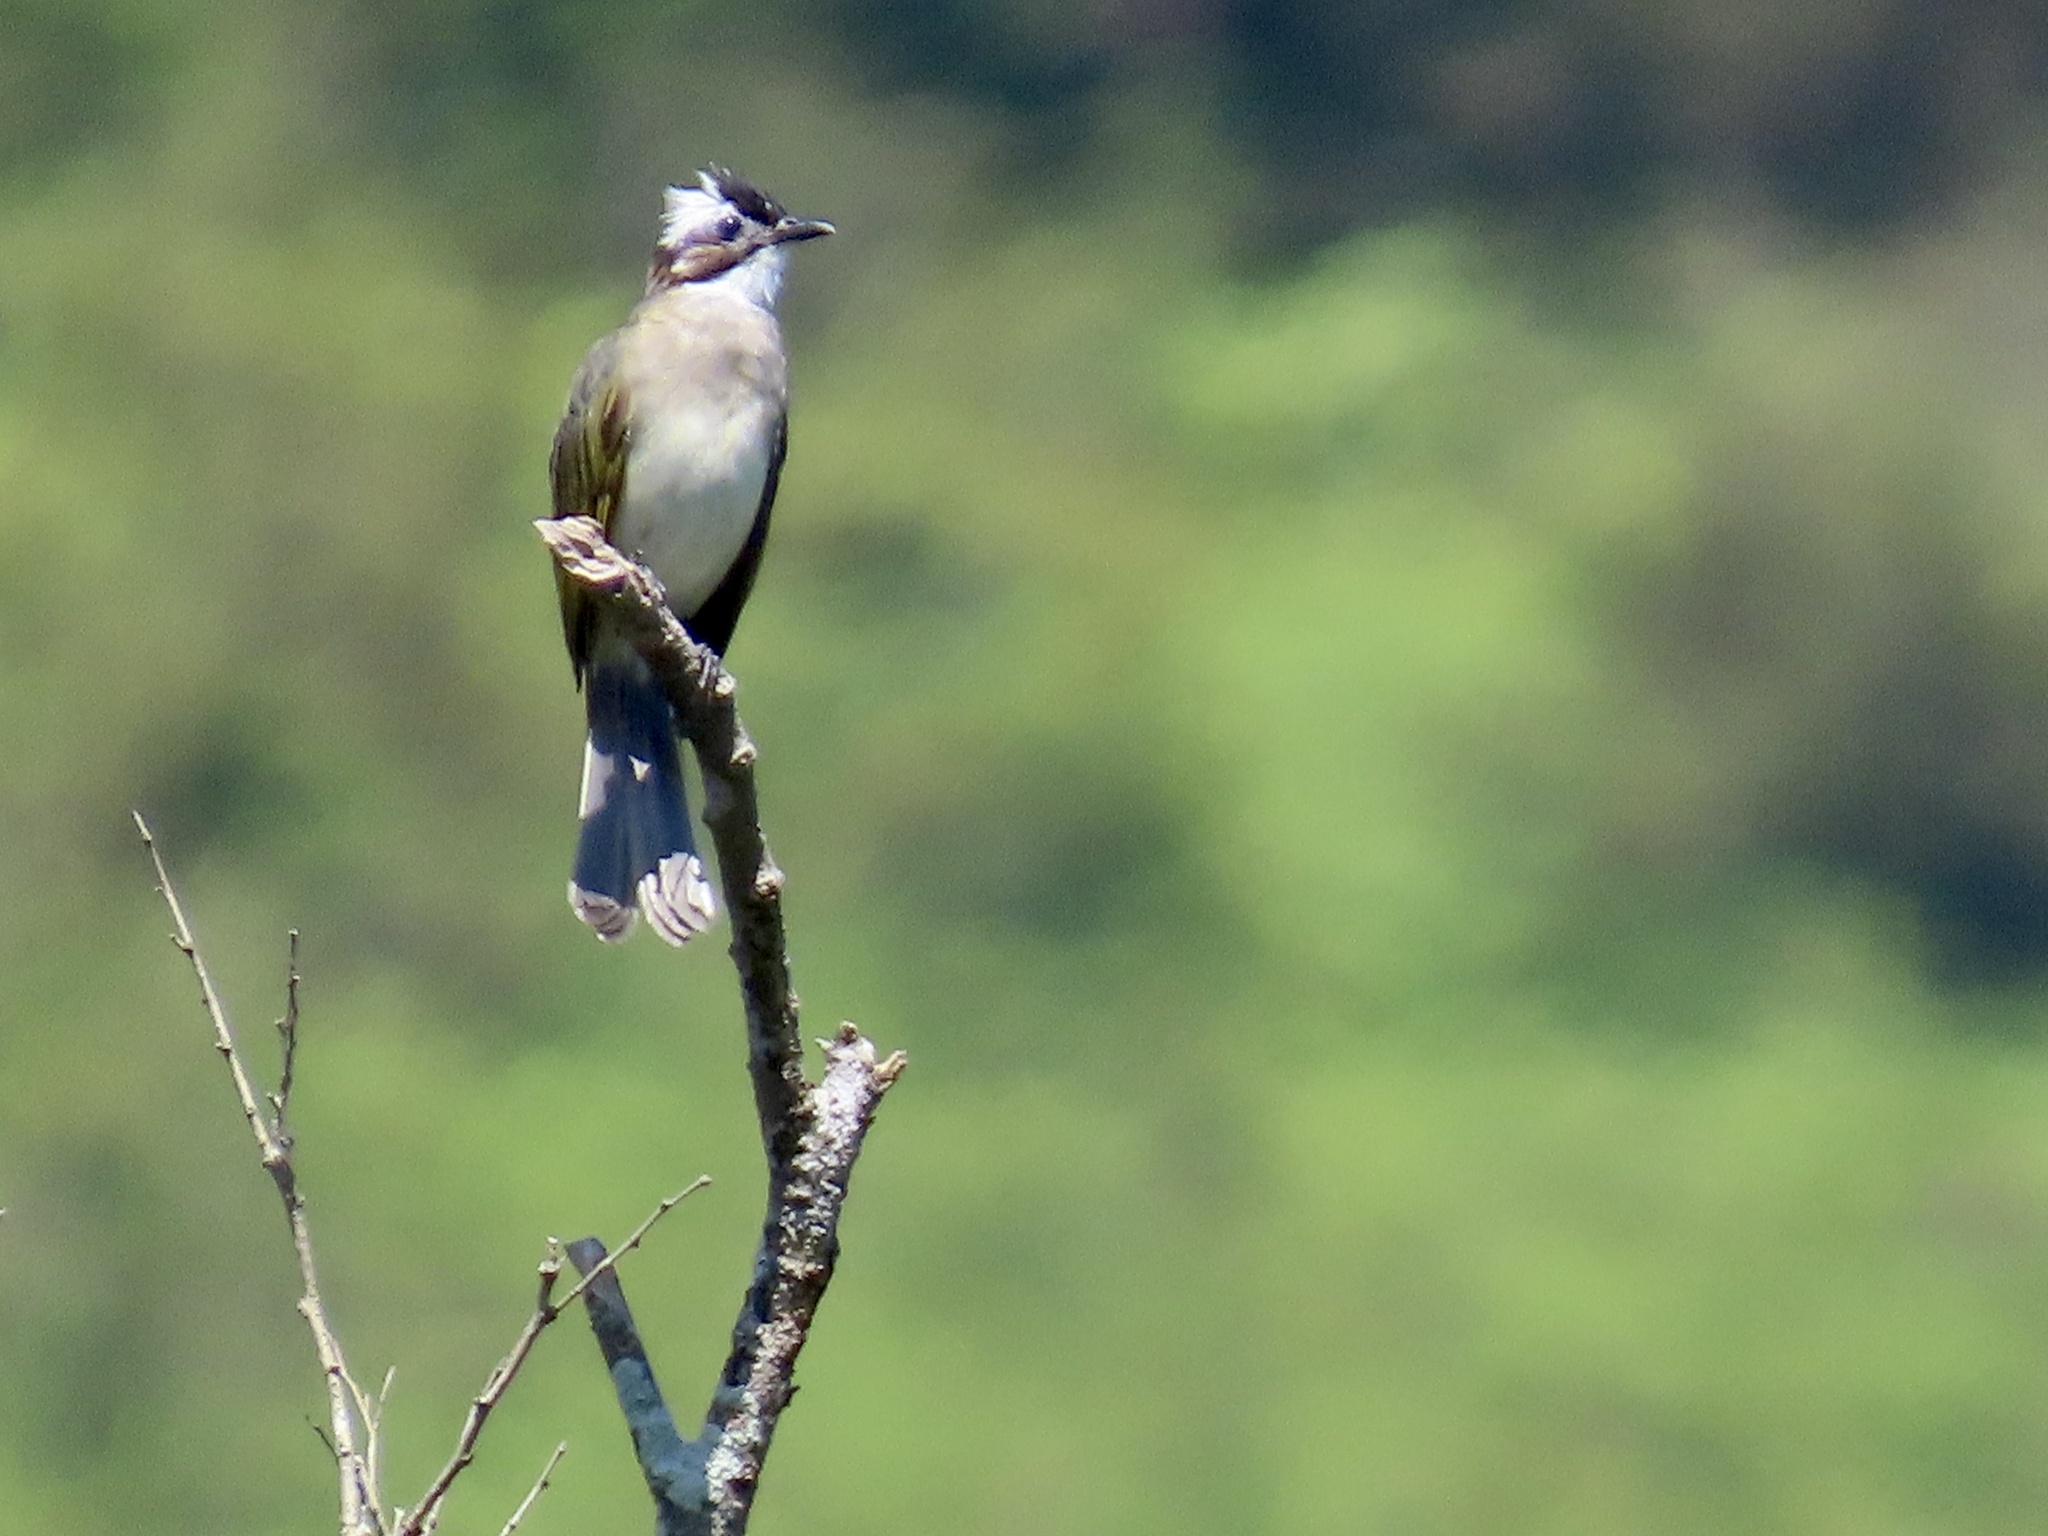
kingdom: Animalia
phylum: Chordata
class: Aves
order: Passeriformes
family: Pycnonotidae
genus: Pycnonotus
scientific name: Pycnonotus sinensis
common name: Light-vented bulbul
